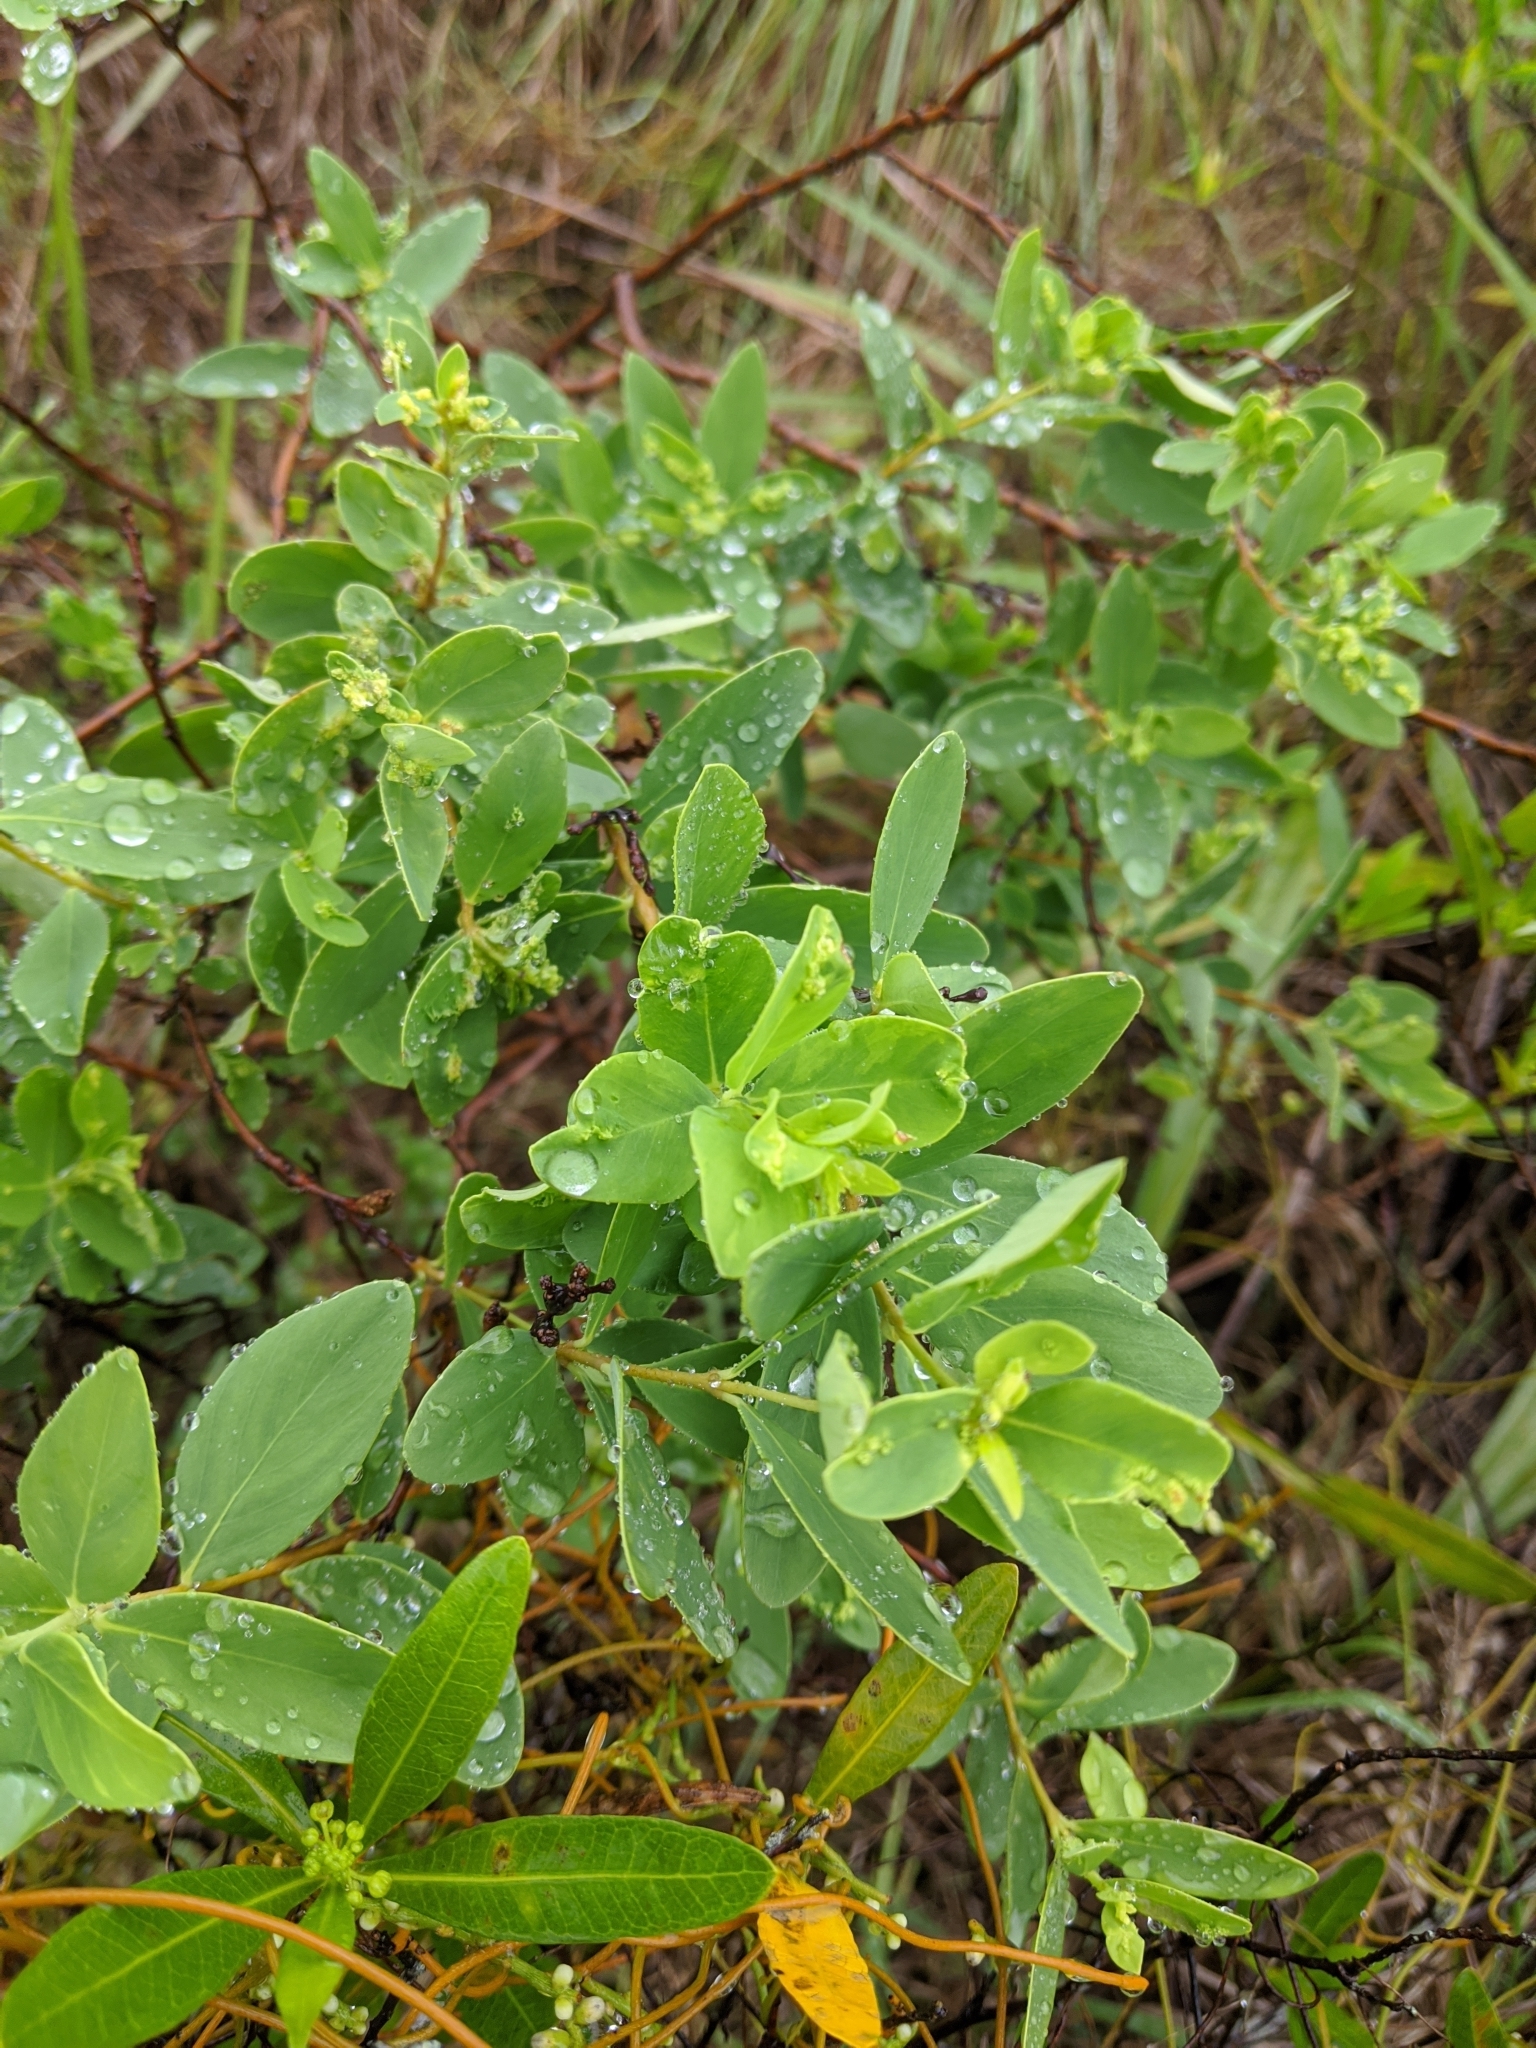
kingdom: Plantae
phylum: Tracheophyta
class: Magnoliopsida
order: Malvales
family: Thymelaeaceae
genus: Wikstroemia
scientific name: Wikstroemia indica
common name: Tiebush
